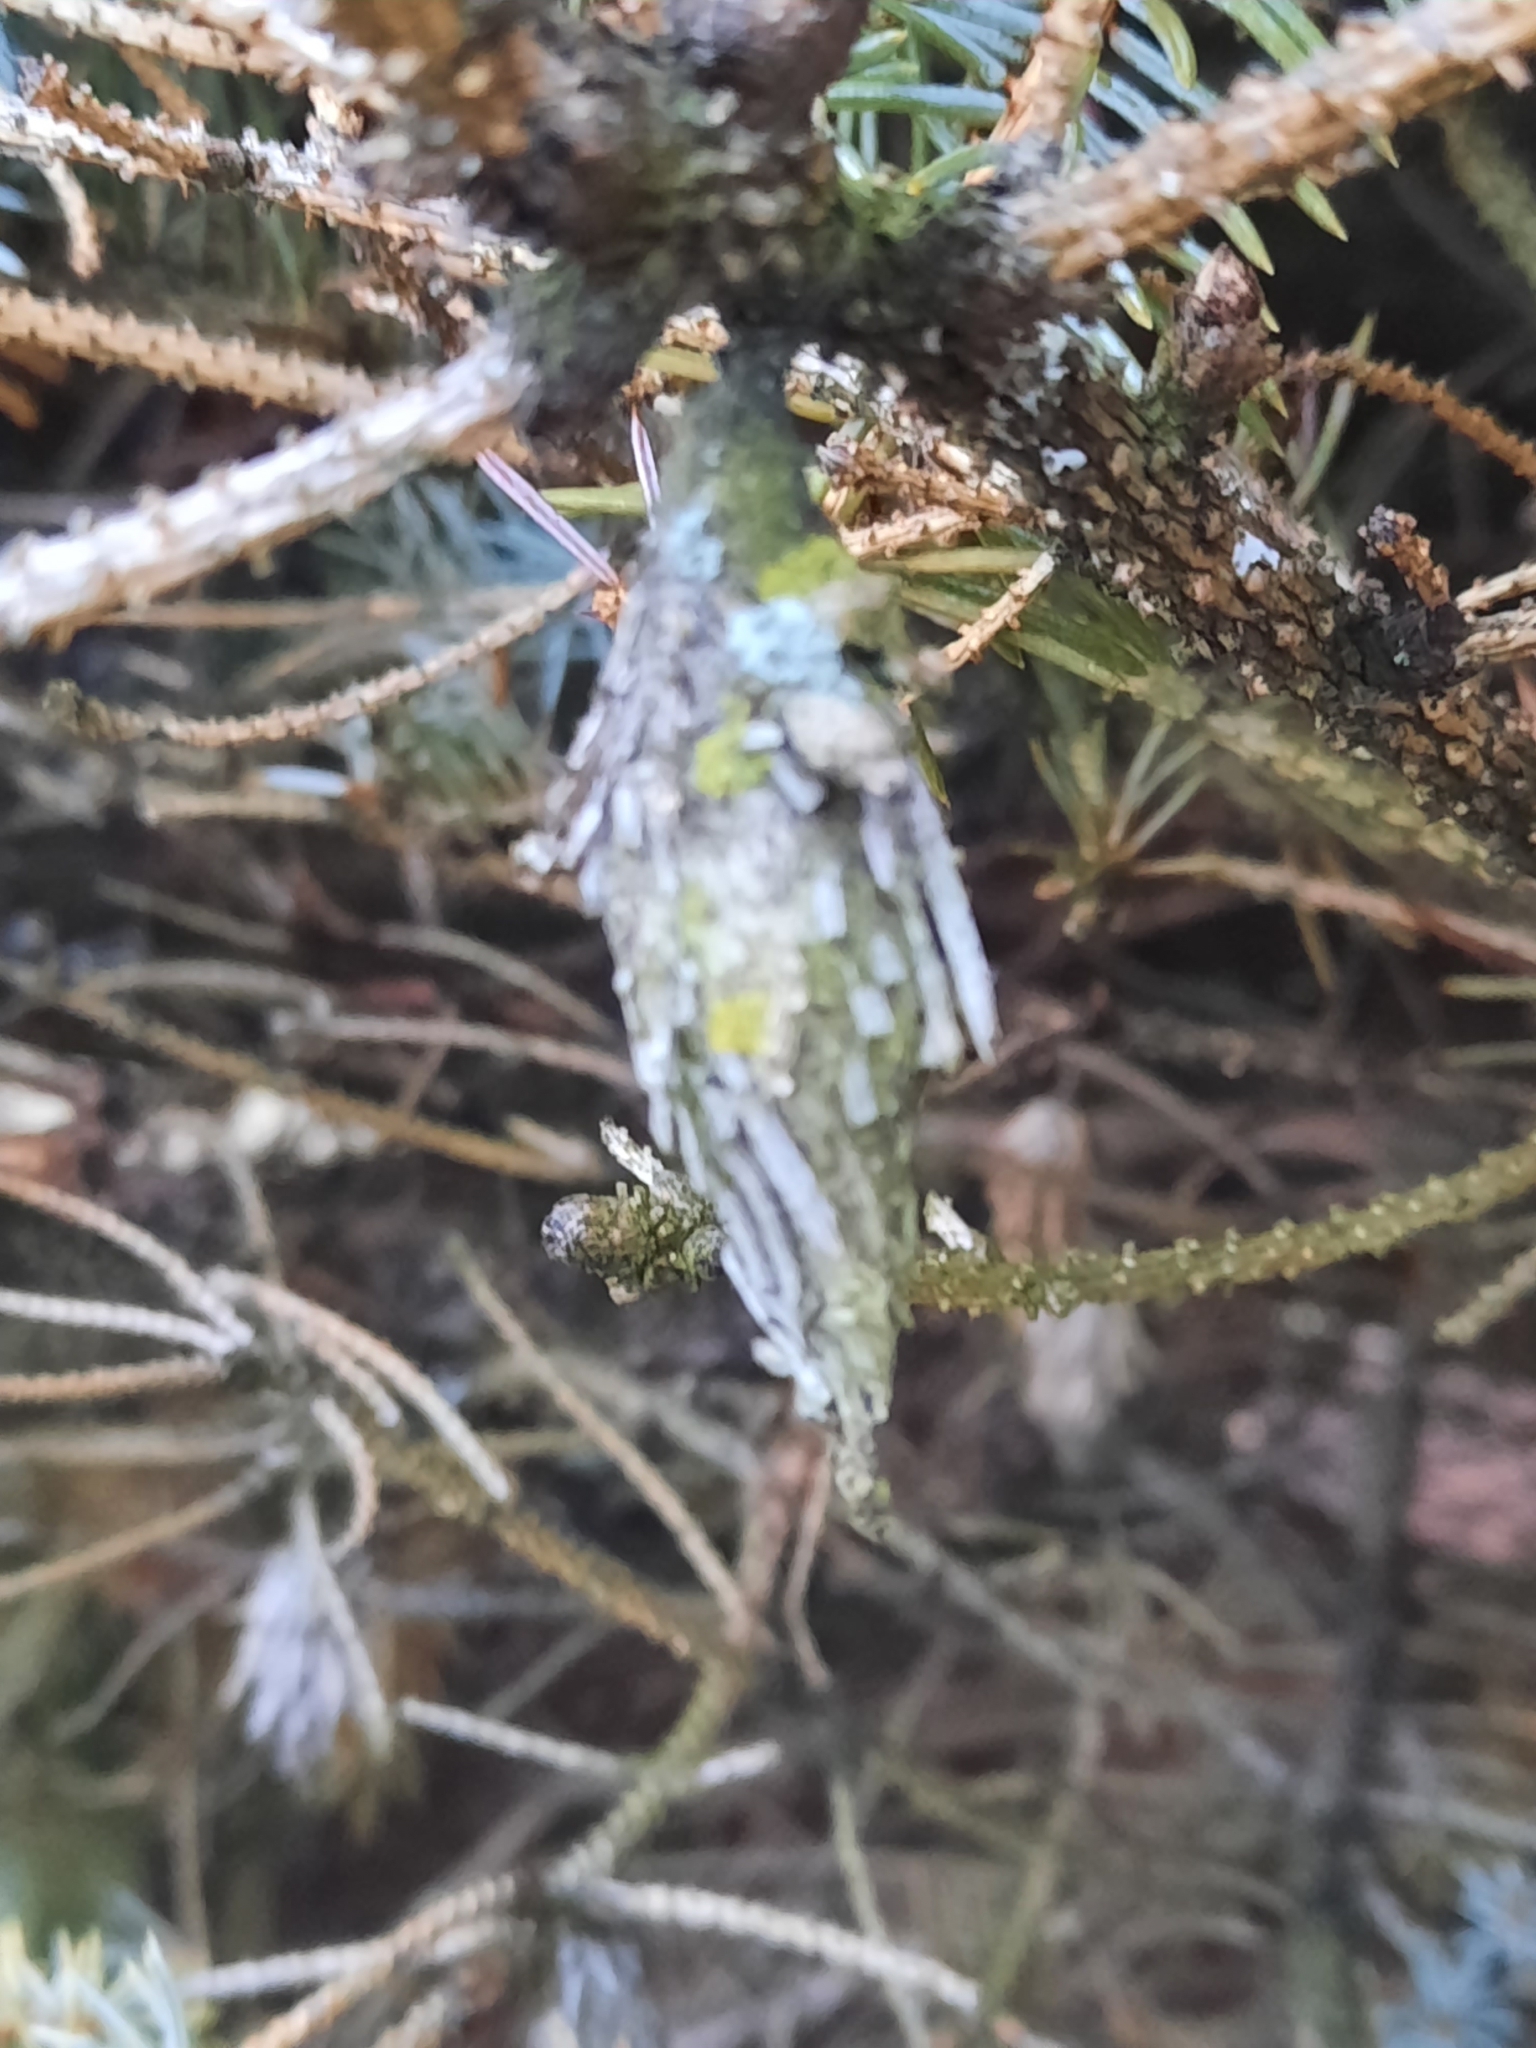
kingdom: Animalia
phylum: Arthropoda
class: Insecta
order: Lepidoptera
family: Psychidae
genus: Thyridopteryx
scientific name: Thyridopteryx ephemeraeformis
